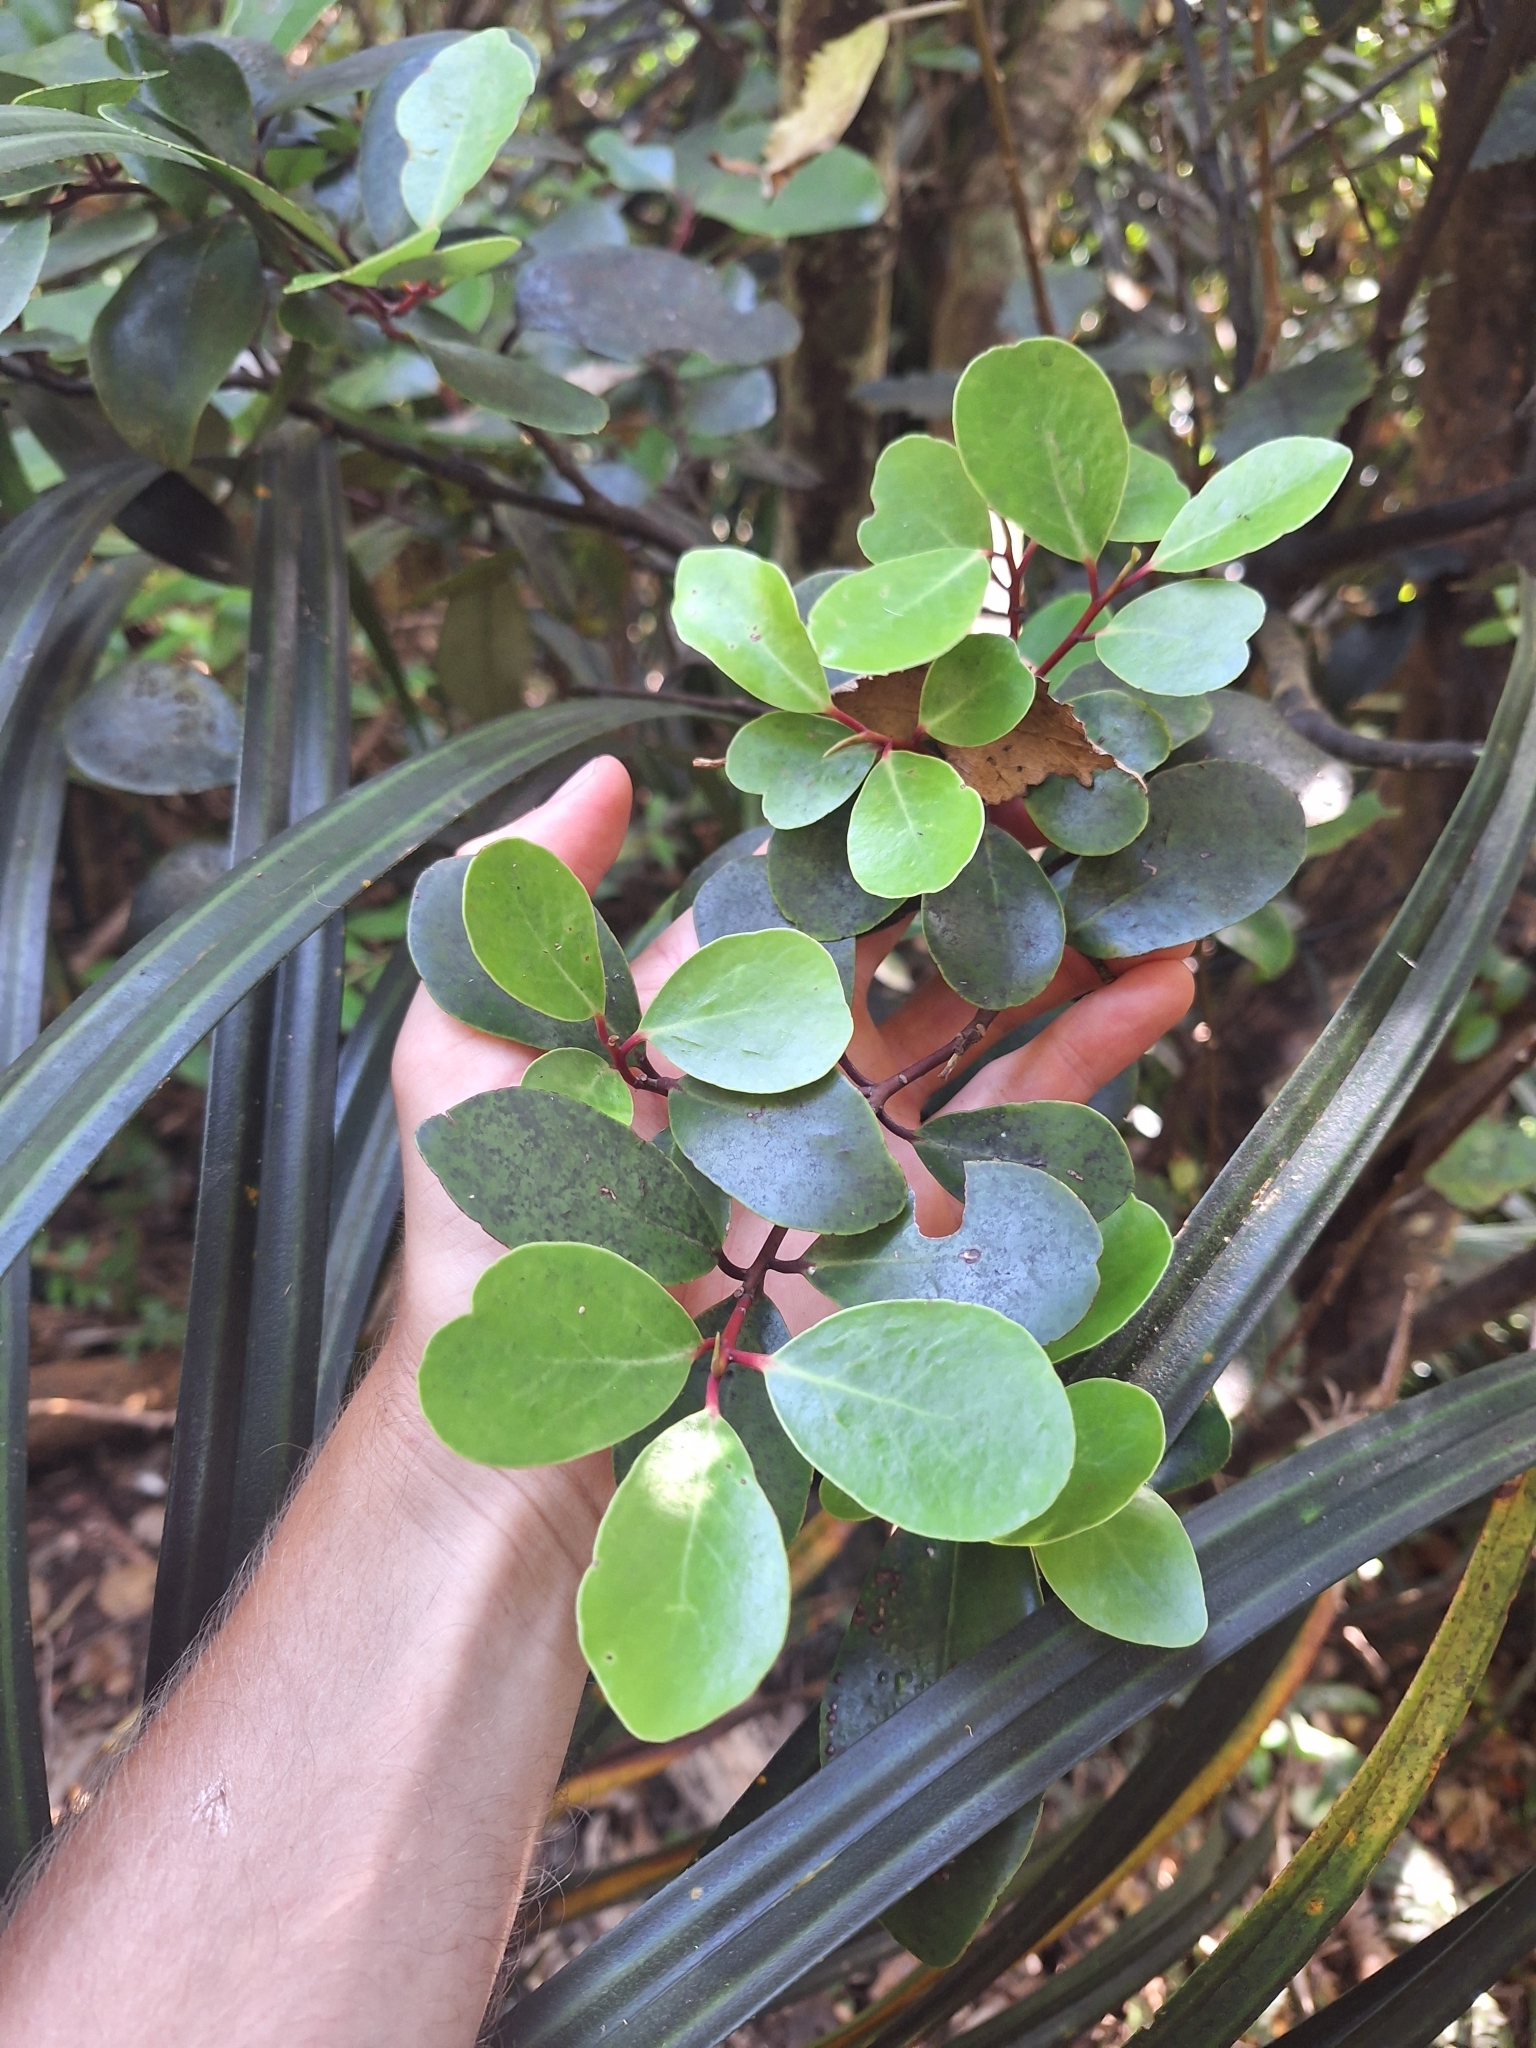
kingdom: Plantae
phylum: Tracheophyta
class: Magnoliopsida
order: Canellales
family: Winteraceae
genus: Pseudowintera
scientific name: Pseudowintera insperata
